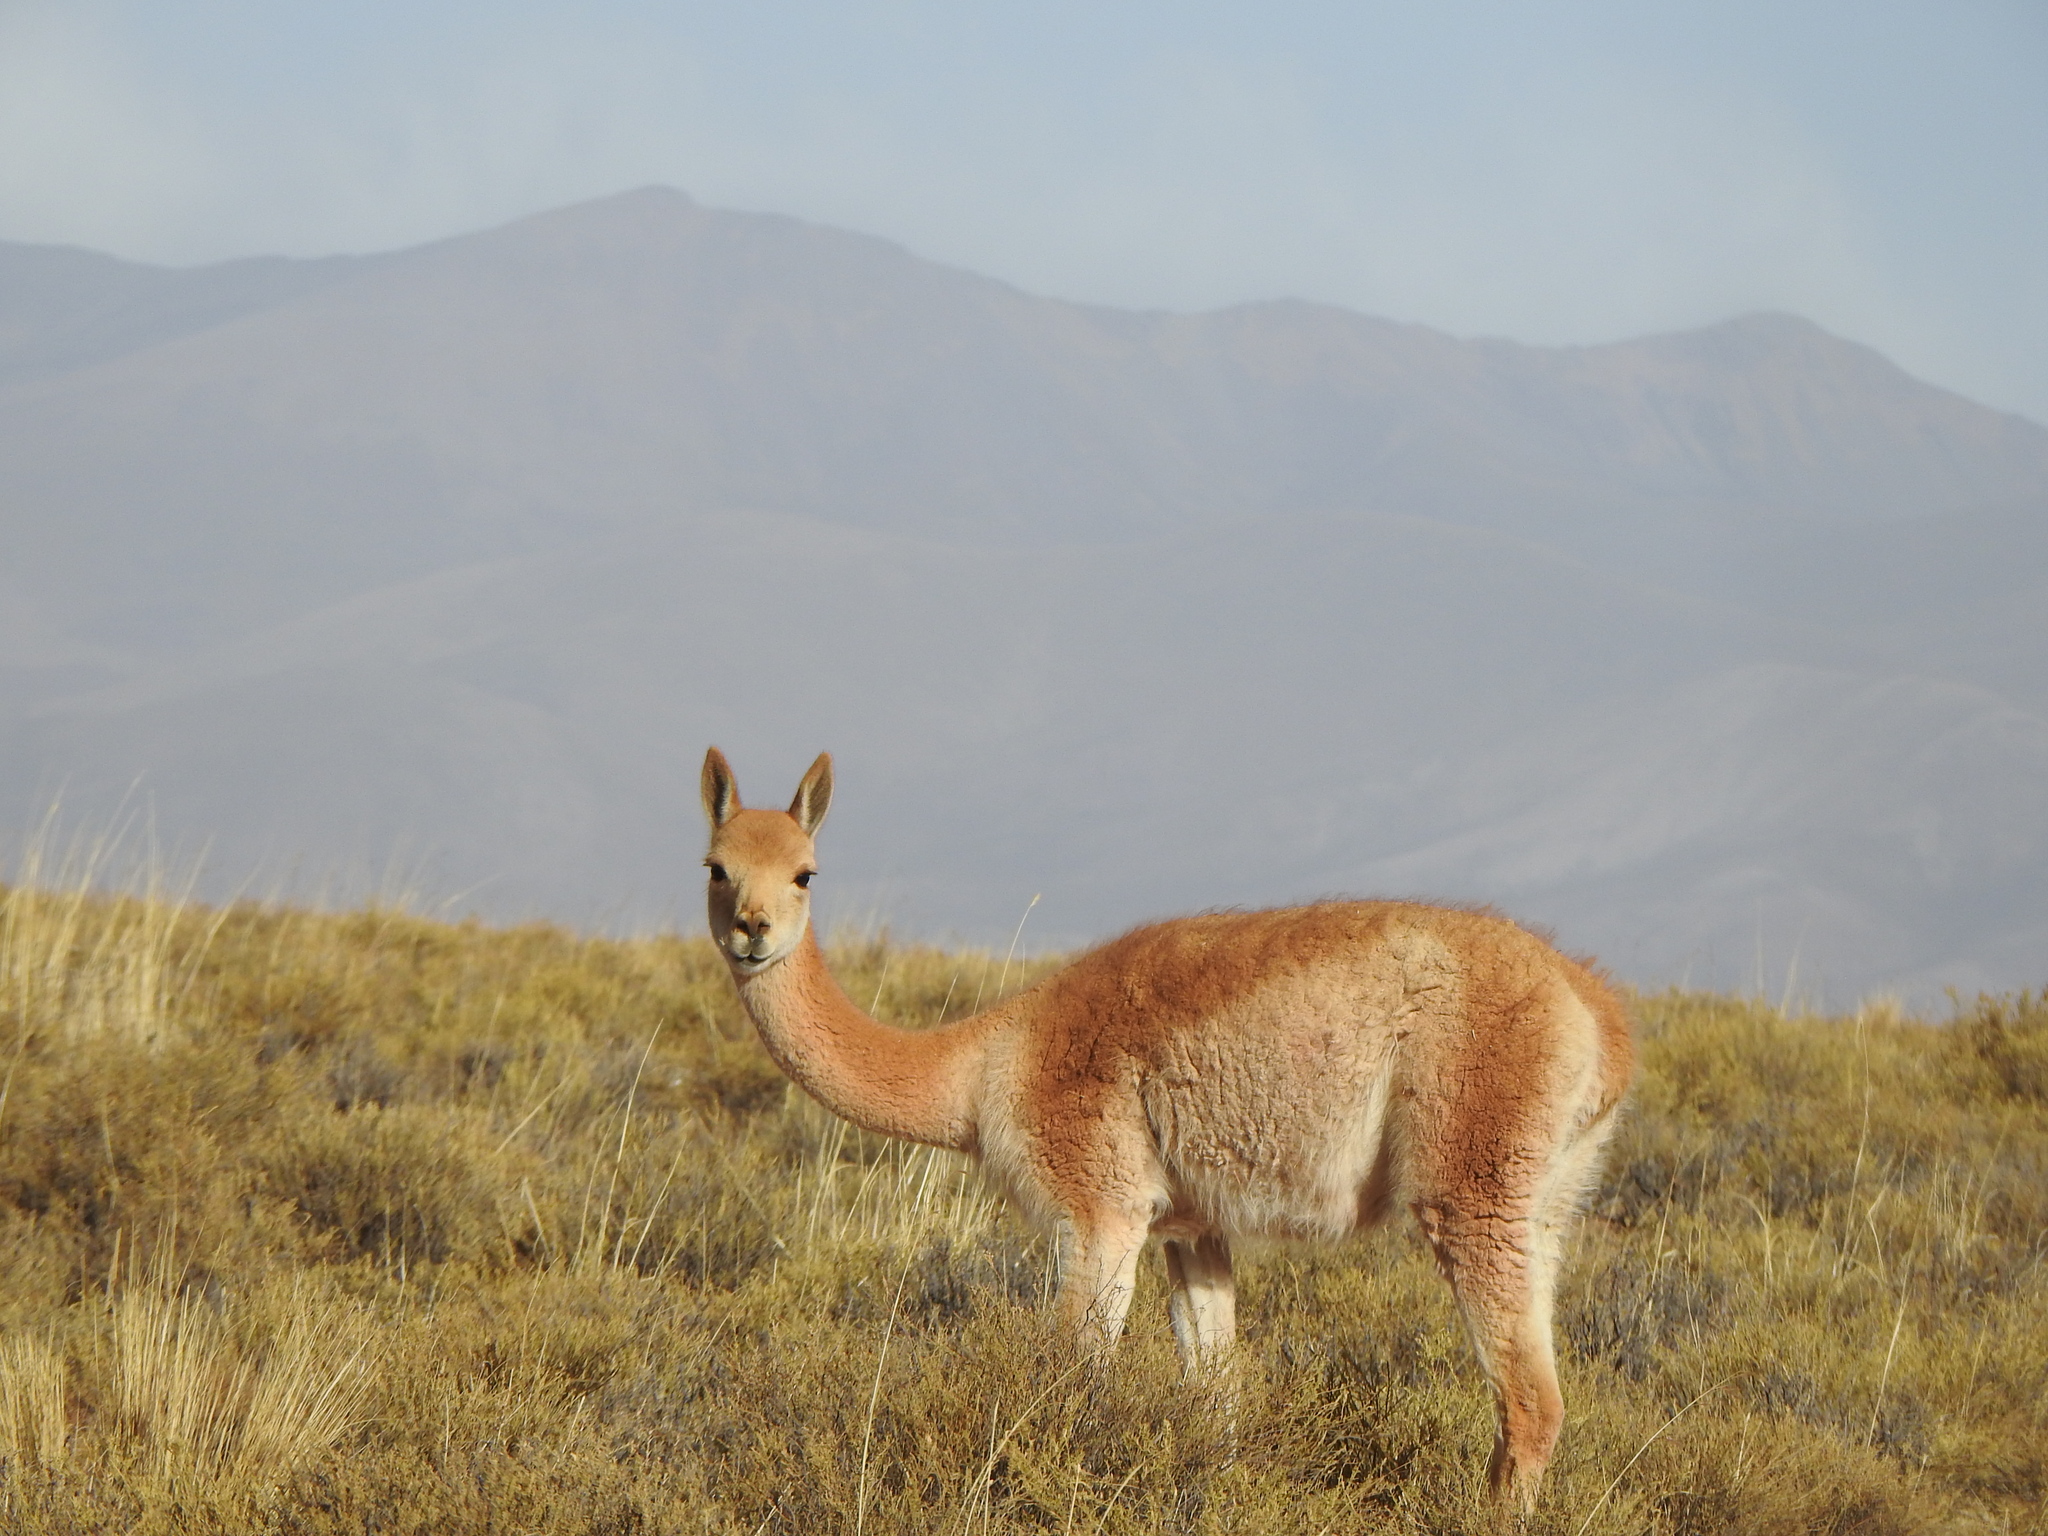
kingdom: Animalia
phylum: Chordata
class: Mammalia
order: Artiodactyla
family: Camelidae
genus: Vicugna
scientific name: Vicugna vicugna
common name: Vicugna
